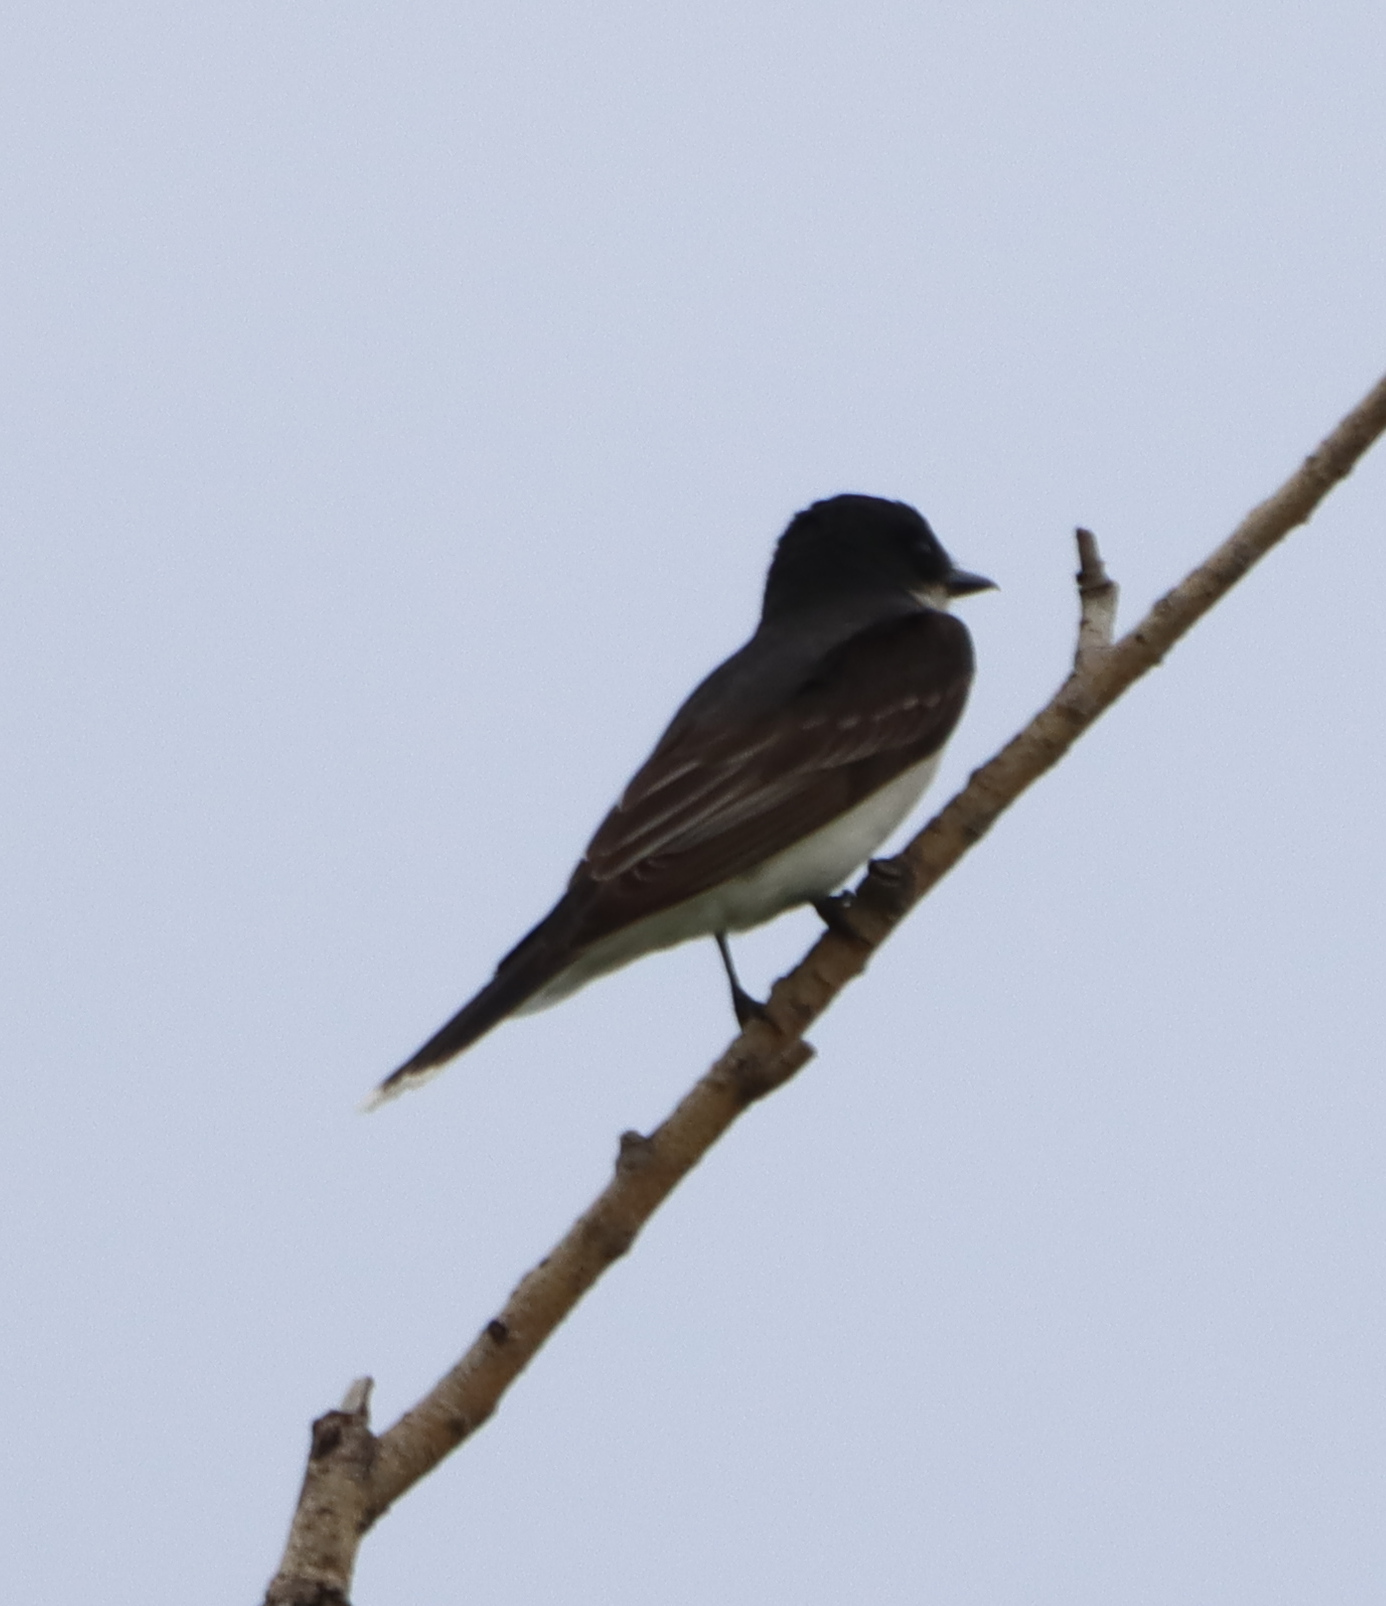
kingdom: Animalia
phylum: Chordata
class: Aves
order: Passeriformes
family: Tyrannidae
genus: Tyrannus
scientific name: Tyrannus tyrannus
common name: Eastern kingbird
